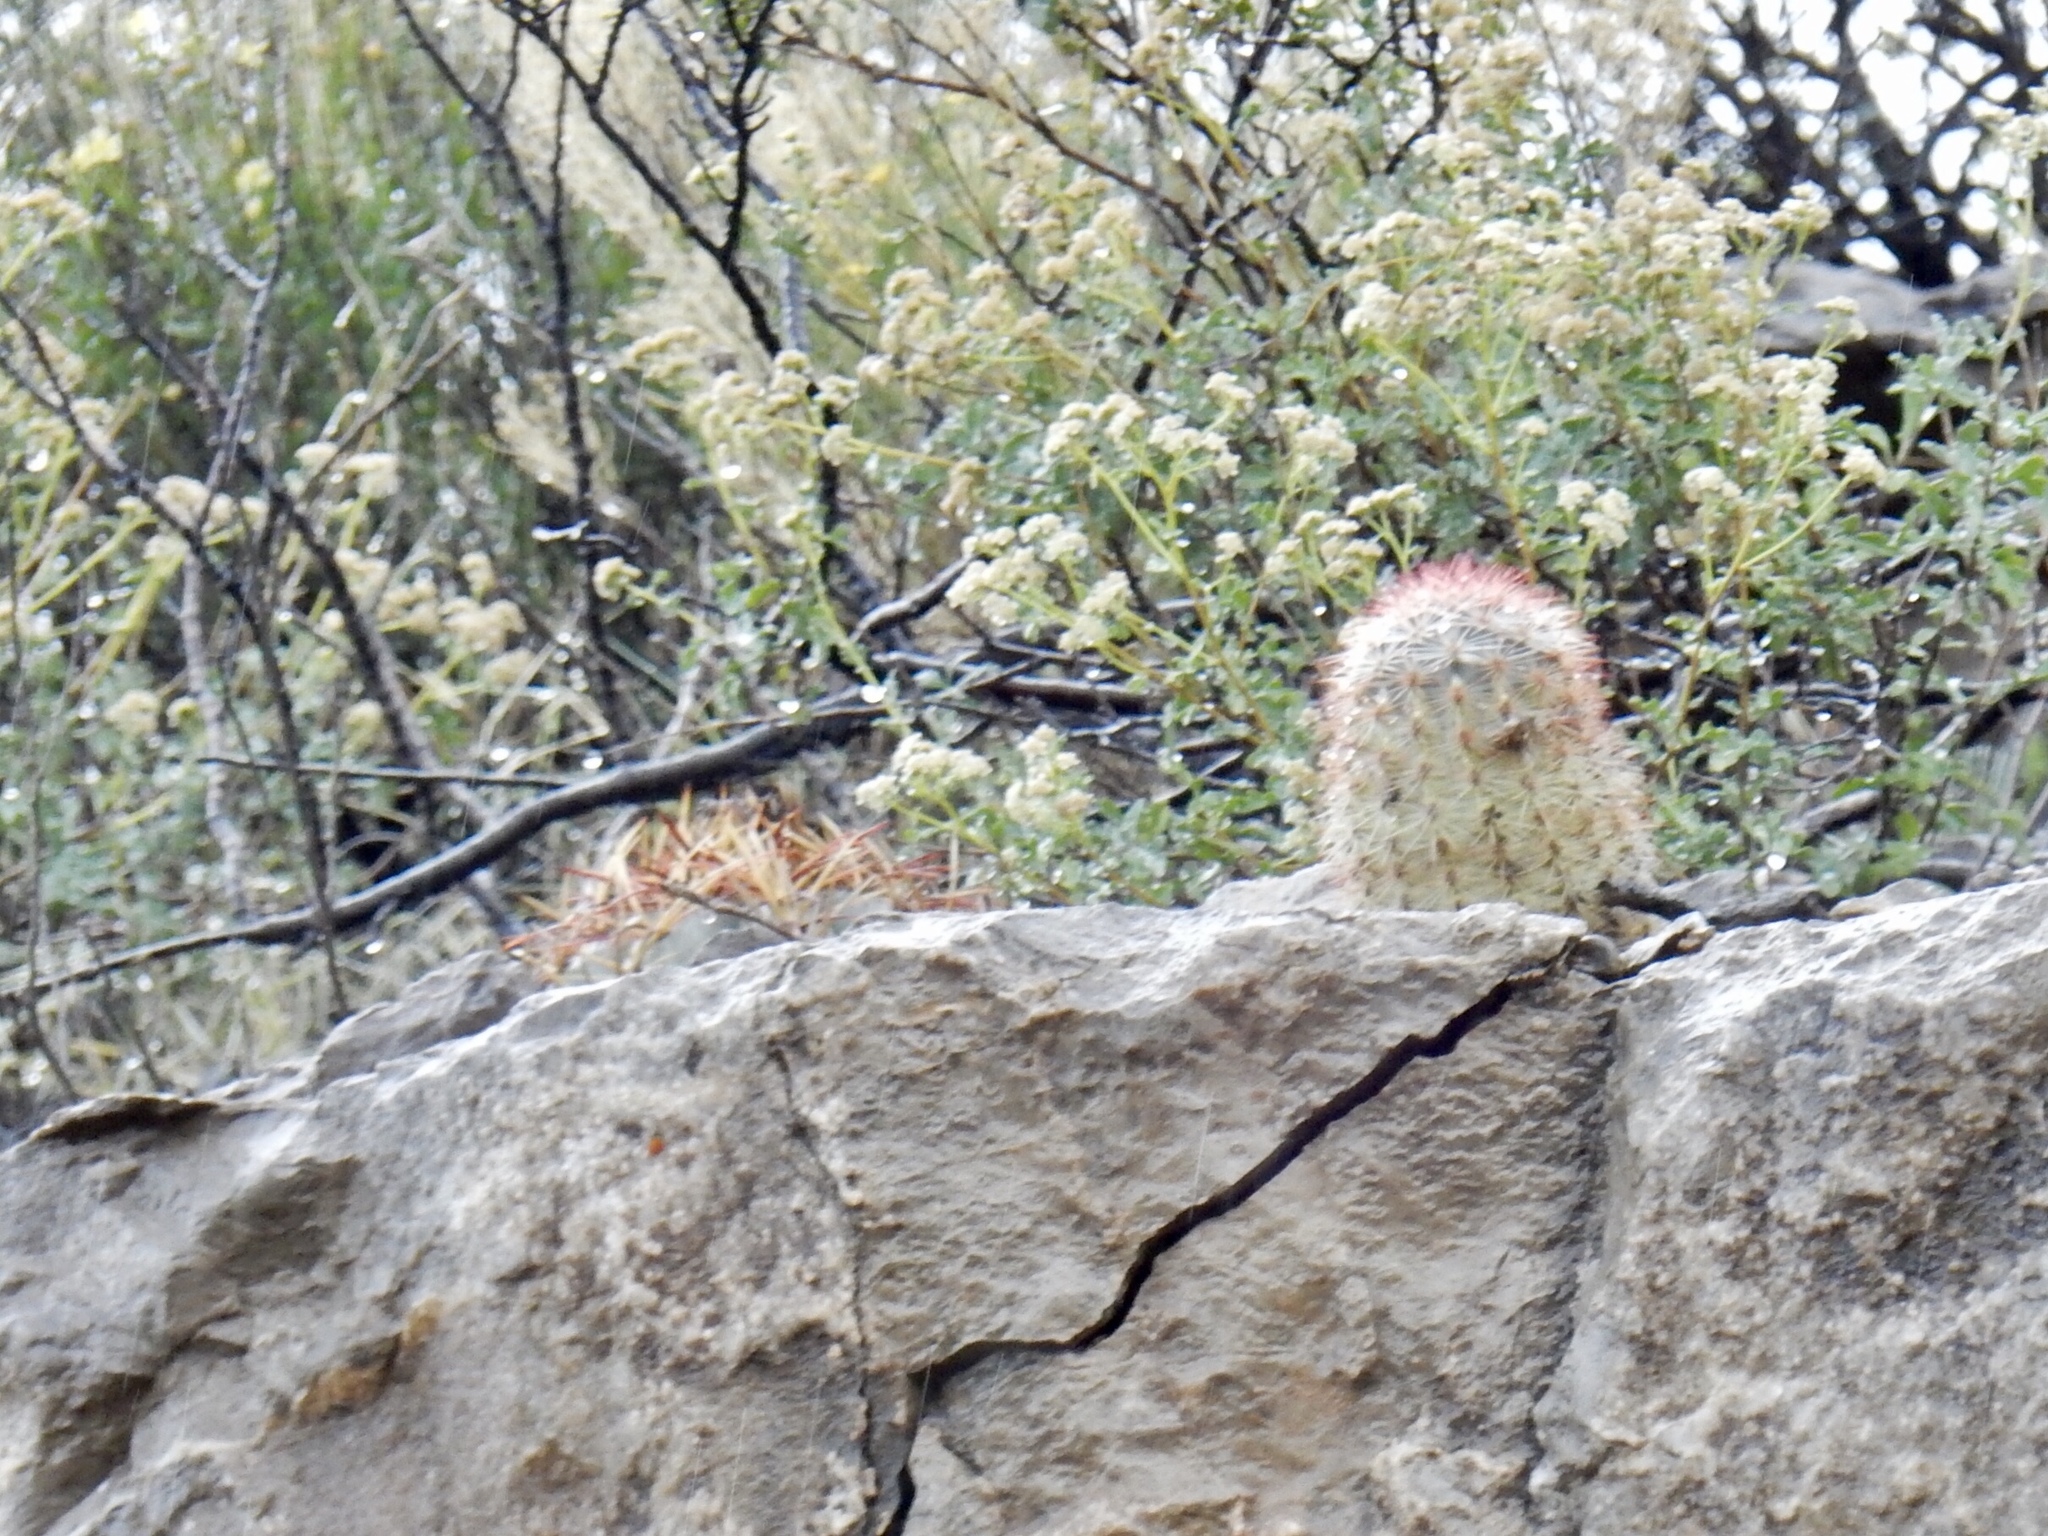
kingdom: Plantae
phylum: Tracheophyta
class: Magnoliopsida
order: Caryophyllales
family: Cactaceae
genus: Echinocactus
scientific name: Echinocactus horizonthalonius
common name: Devilshead
